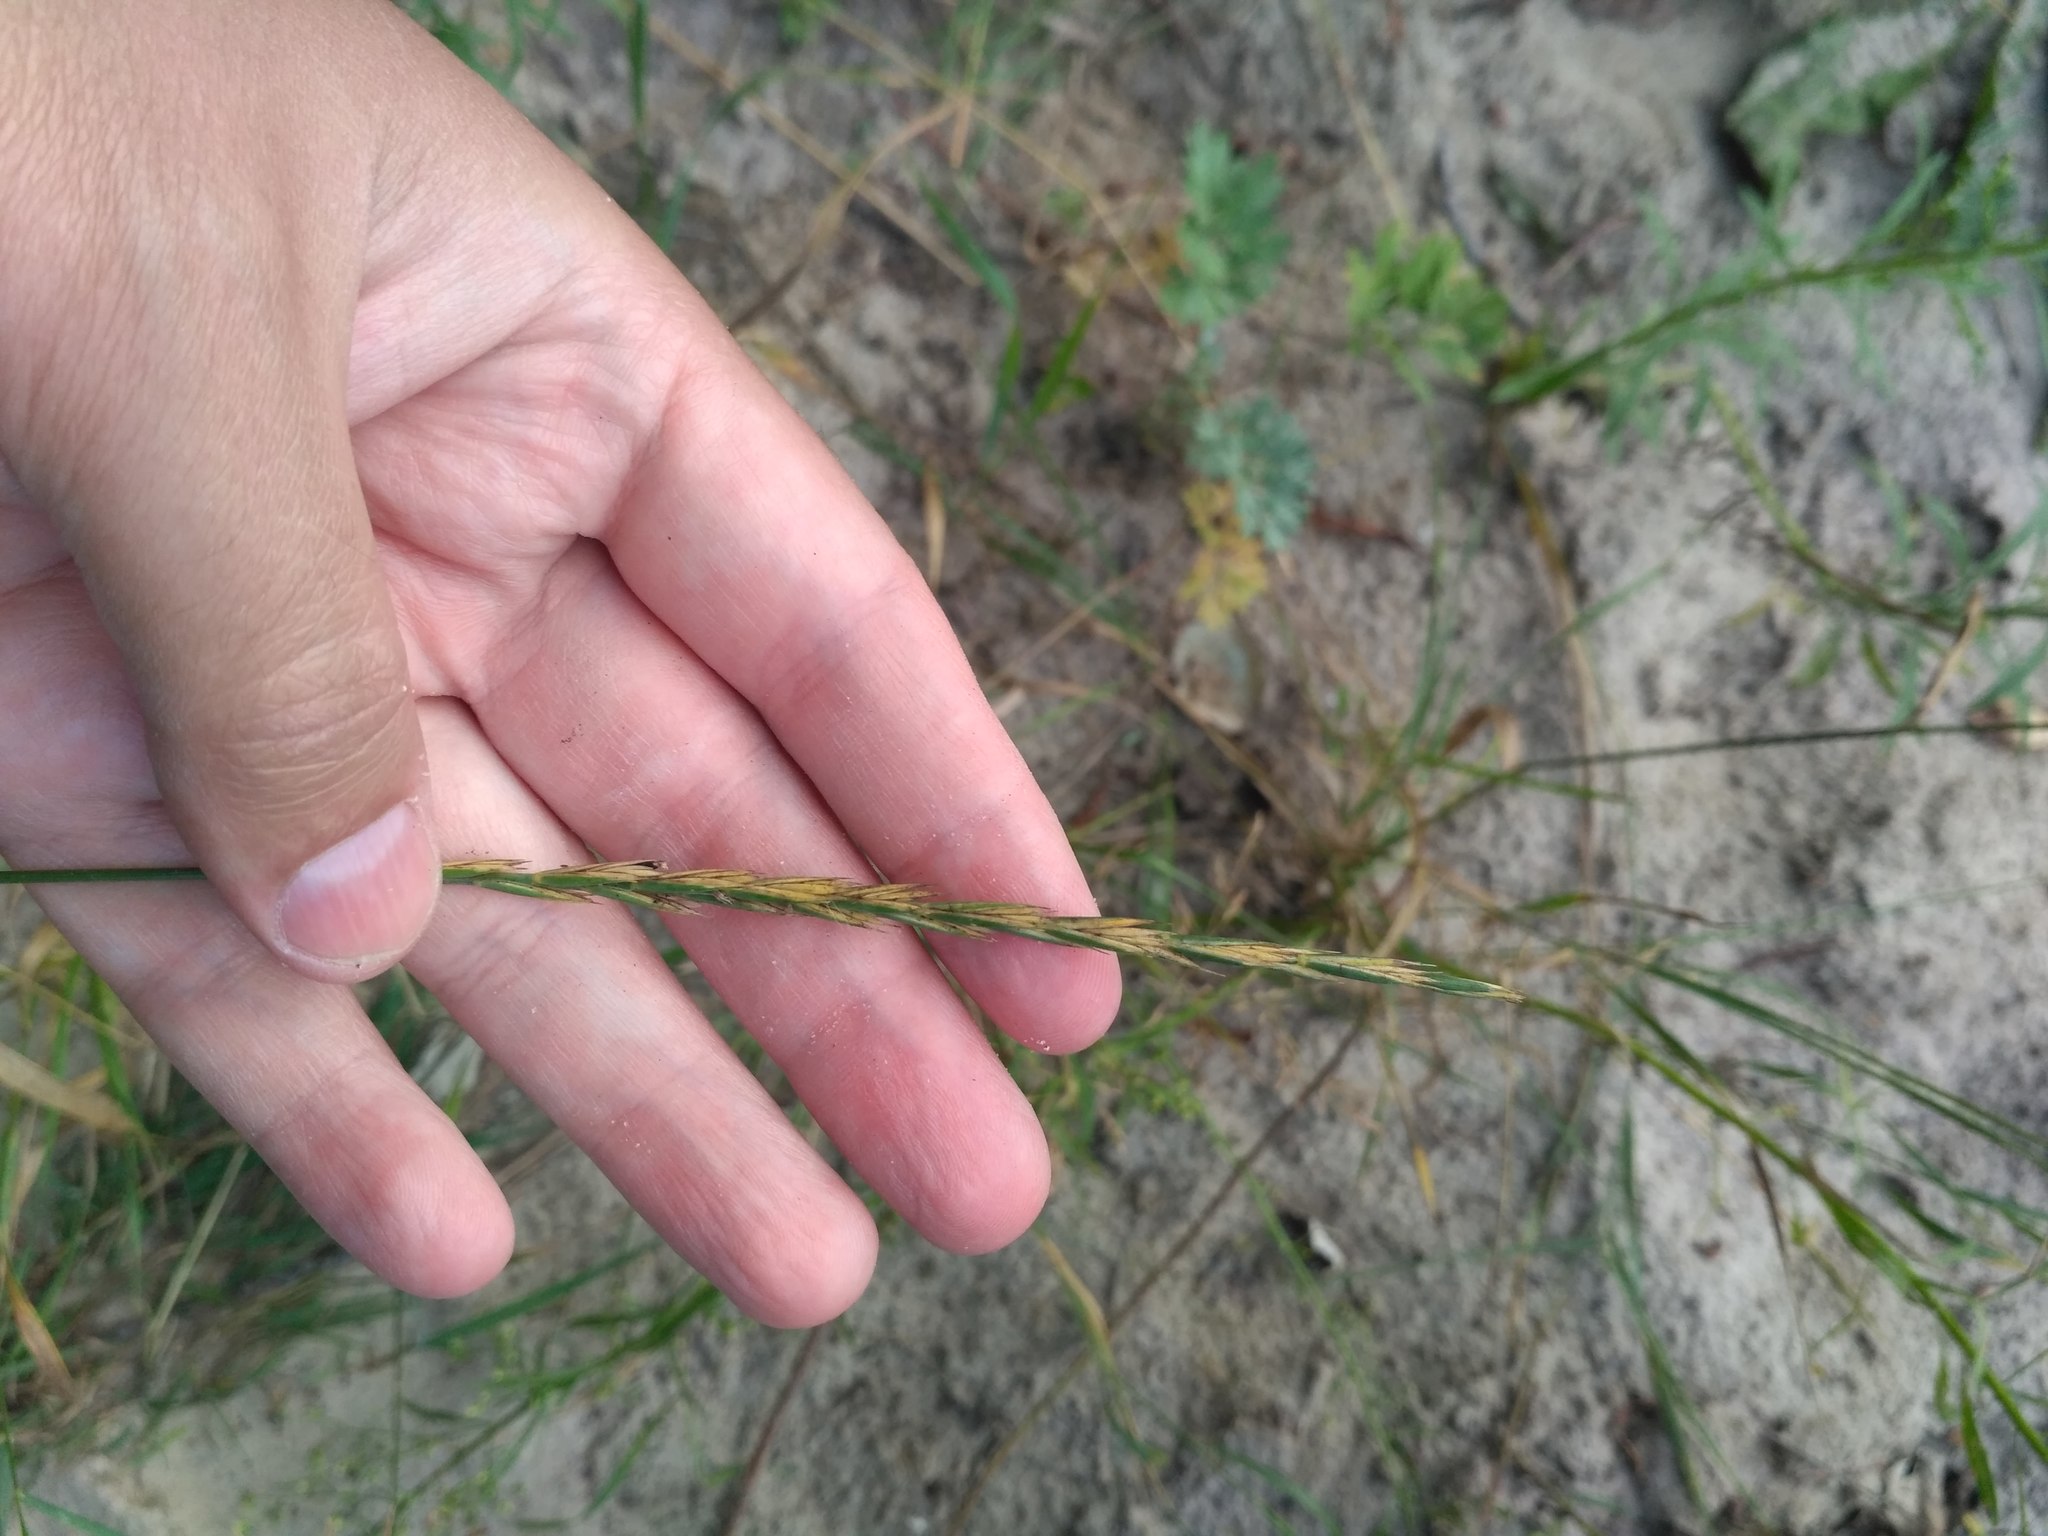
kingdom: Plantae
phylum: Tracheophyta
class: Liliopsida
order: Poales
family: Poaceae
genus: Lolium
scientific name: Lolium perenne
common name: Perennial ryegrass
